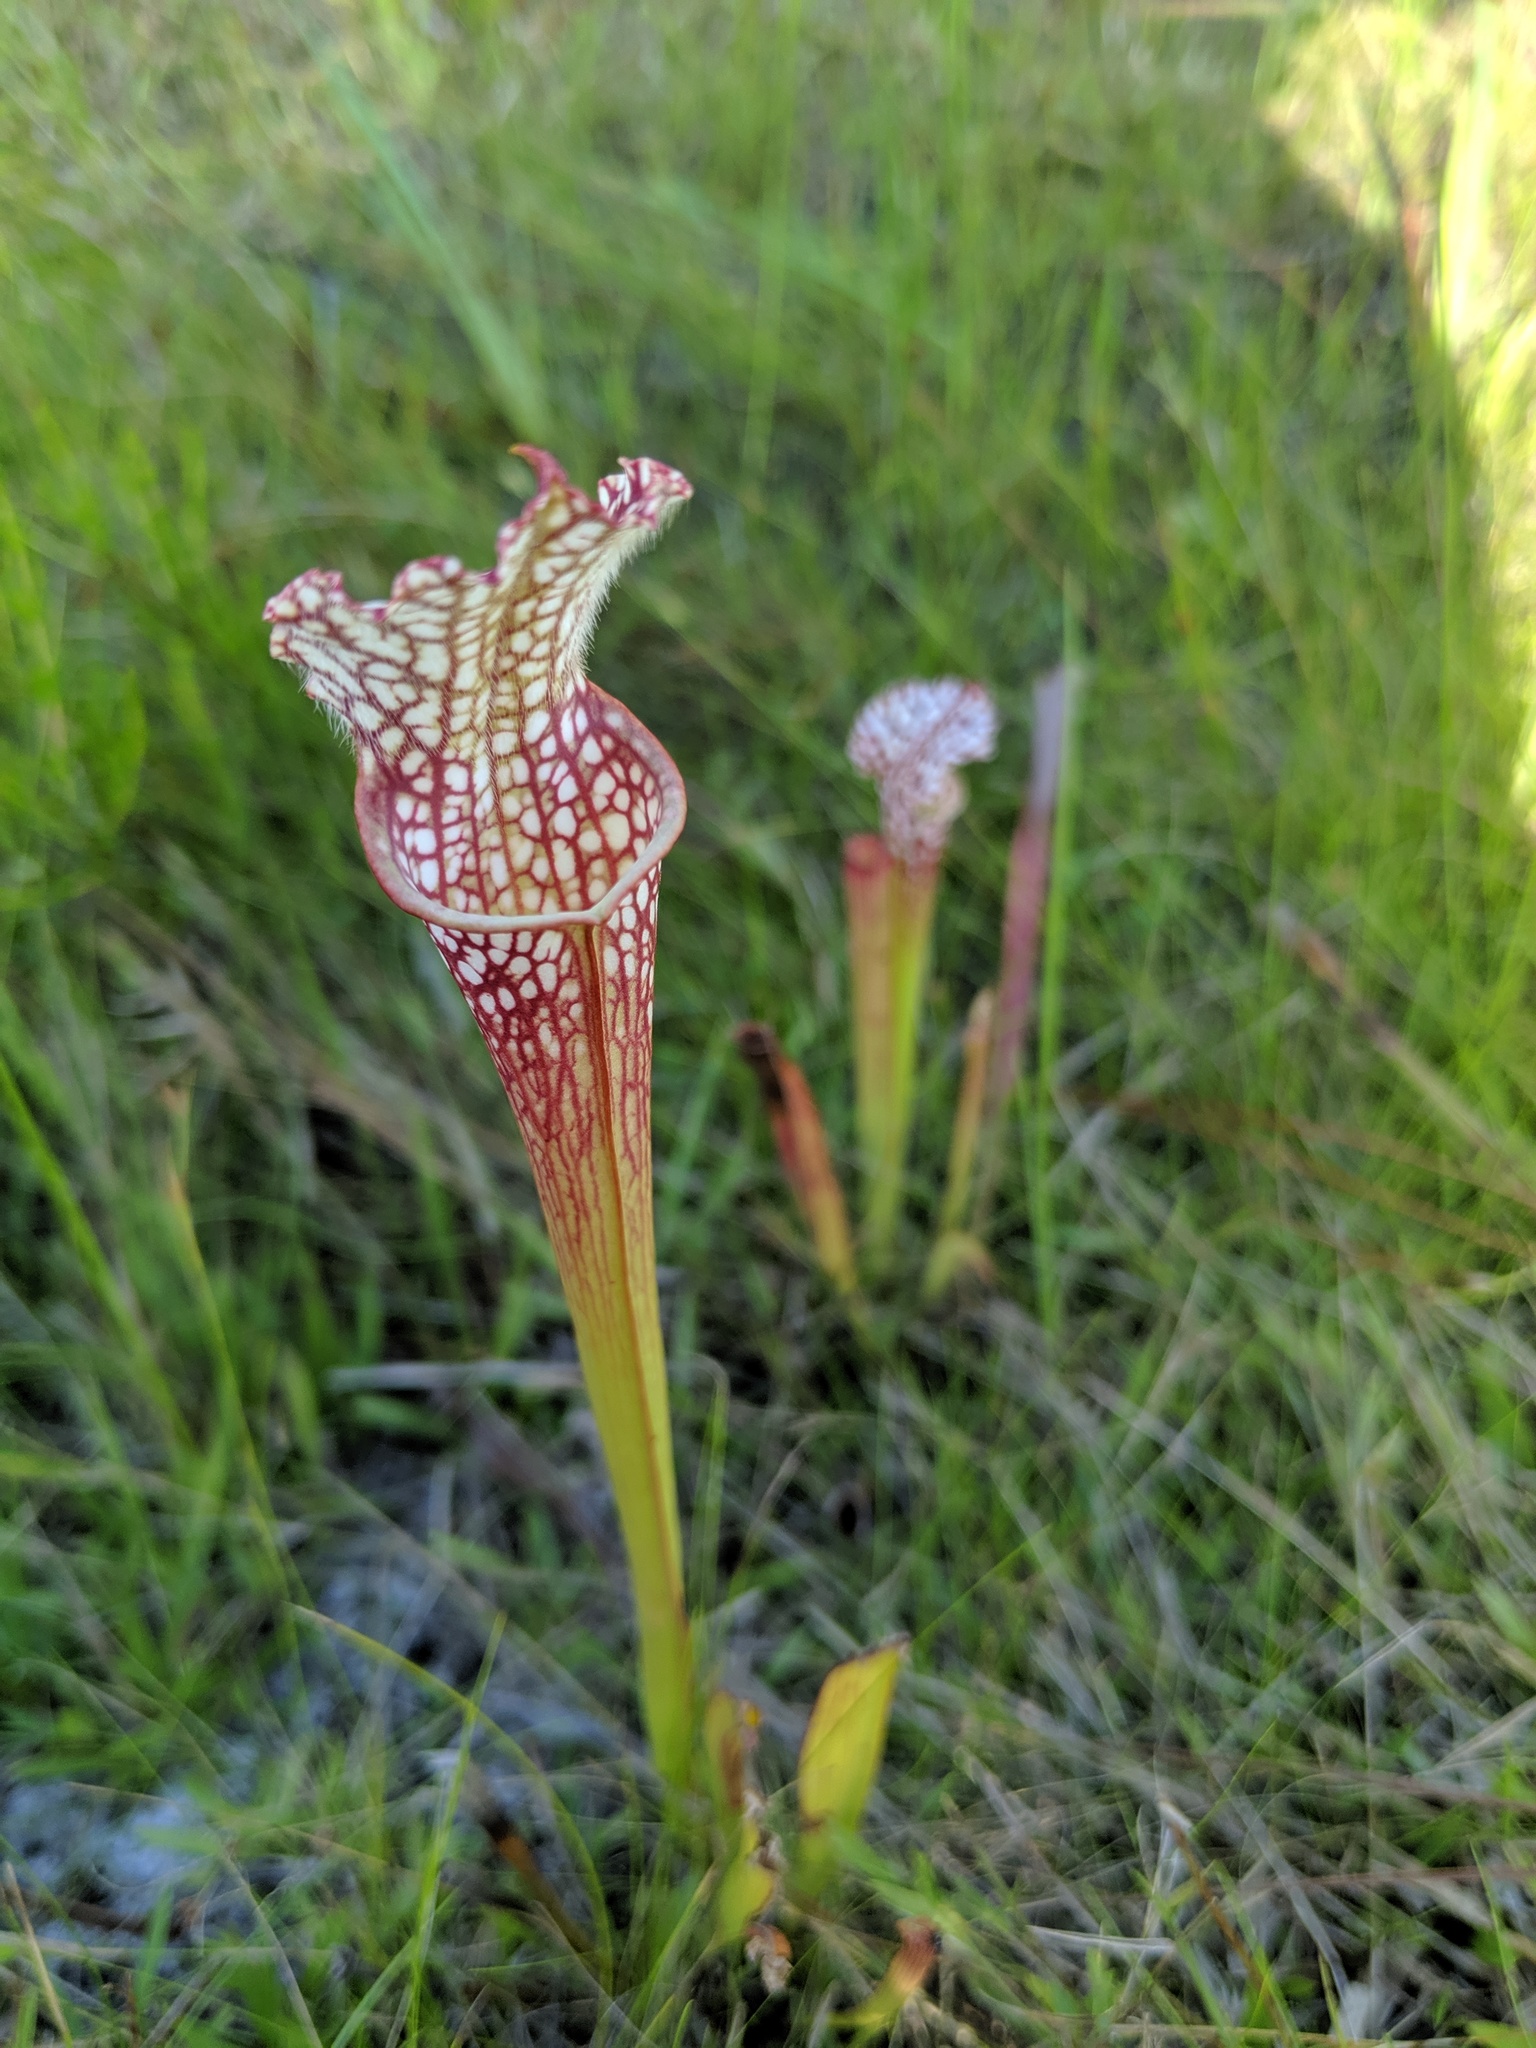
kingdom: Plantae
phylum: Tracheophyta
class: Magnoliopsida
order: Ericales
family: Sarraceniaceae
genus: Sarracenia
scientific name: Sarracenia leucophylla
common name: Purple trumpetleaf
